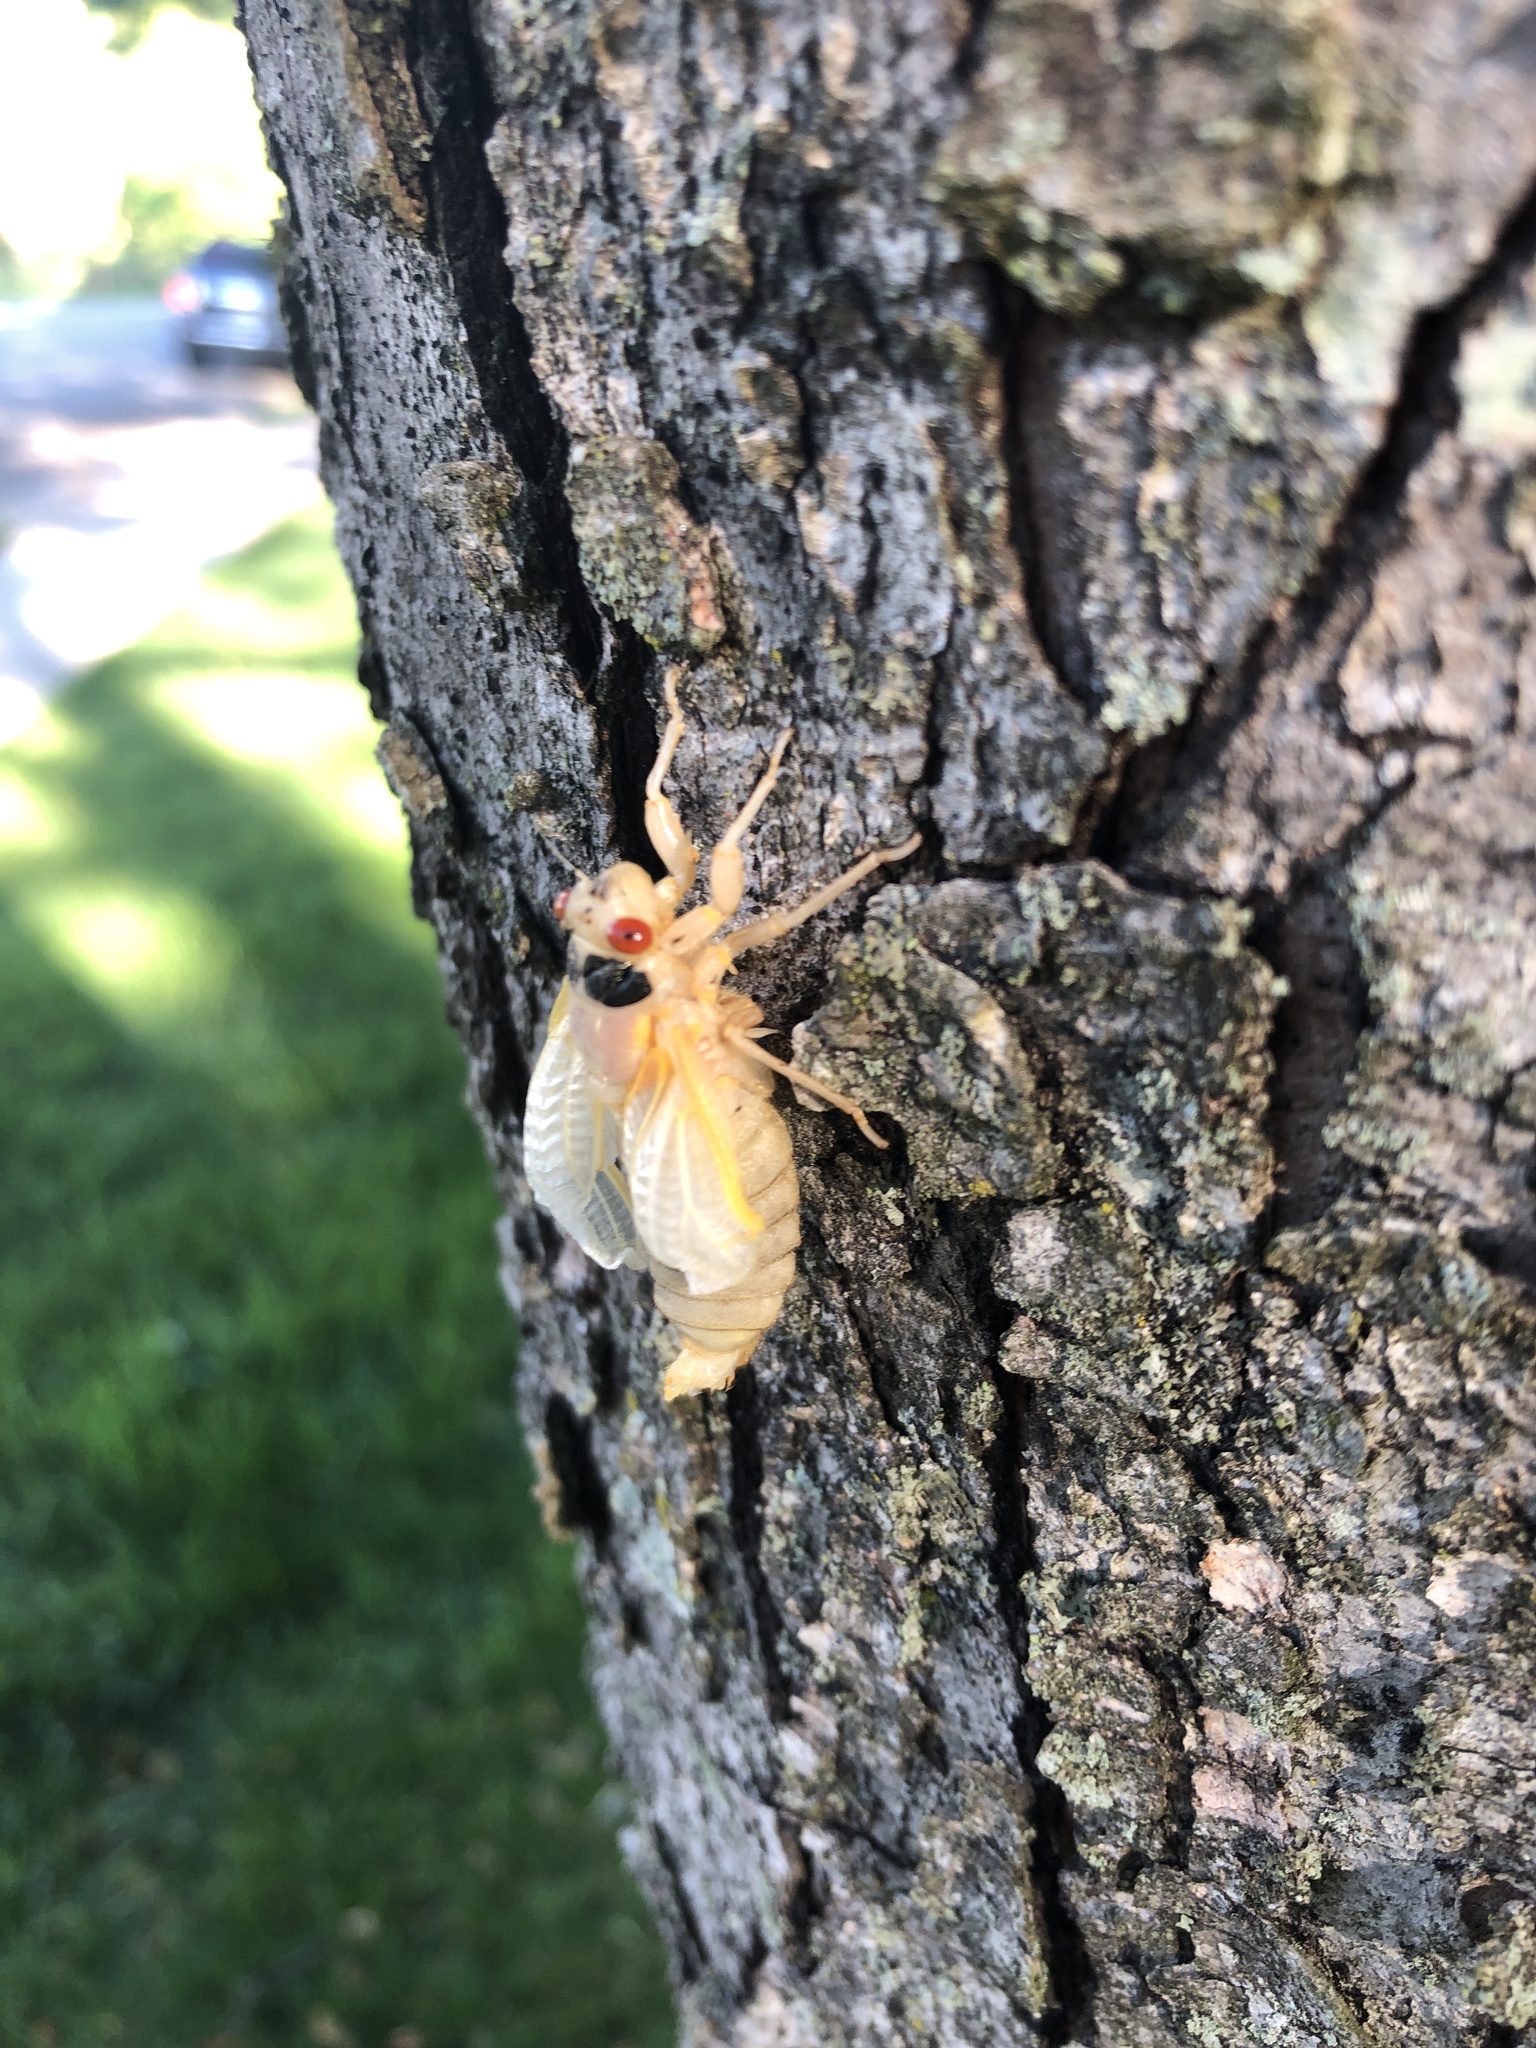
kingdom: Animalia
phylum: Arthropoda
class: Insecta
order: Hemiptera
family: Cicadidae
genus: Magicicada
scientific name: Magicicada
